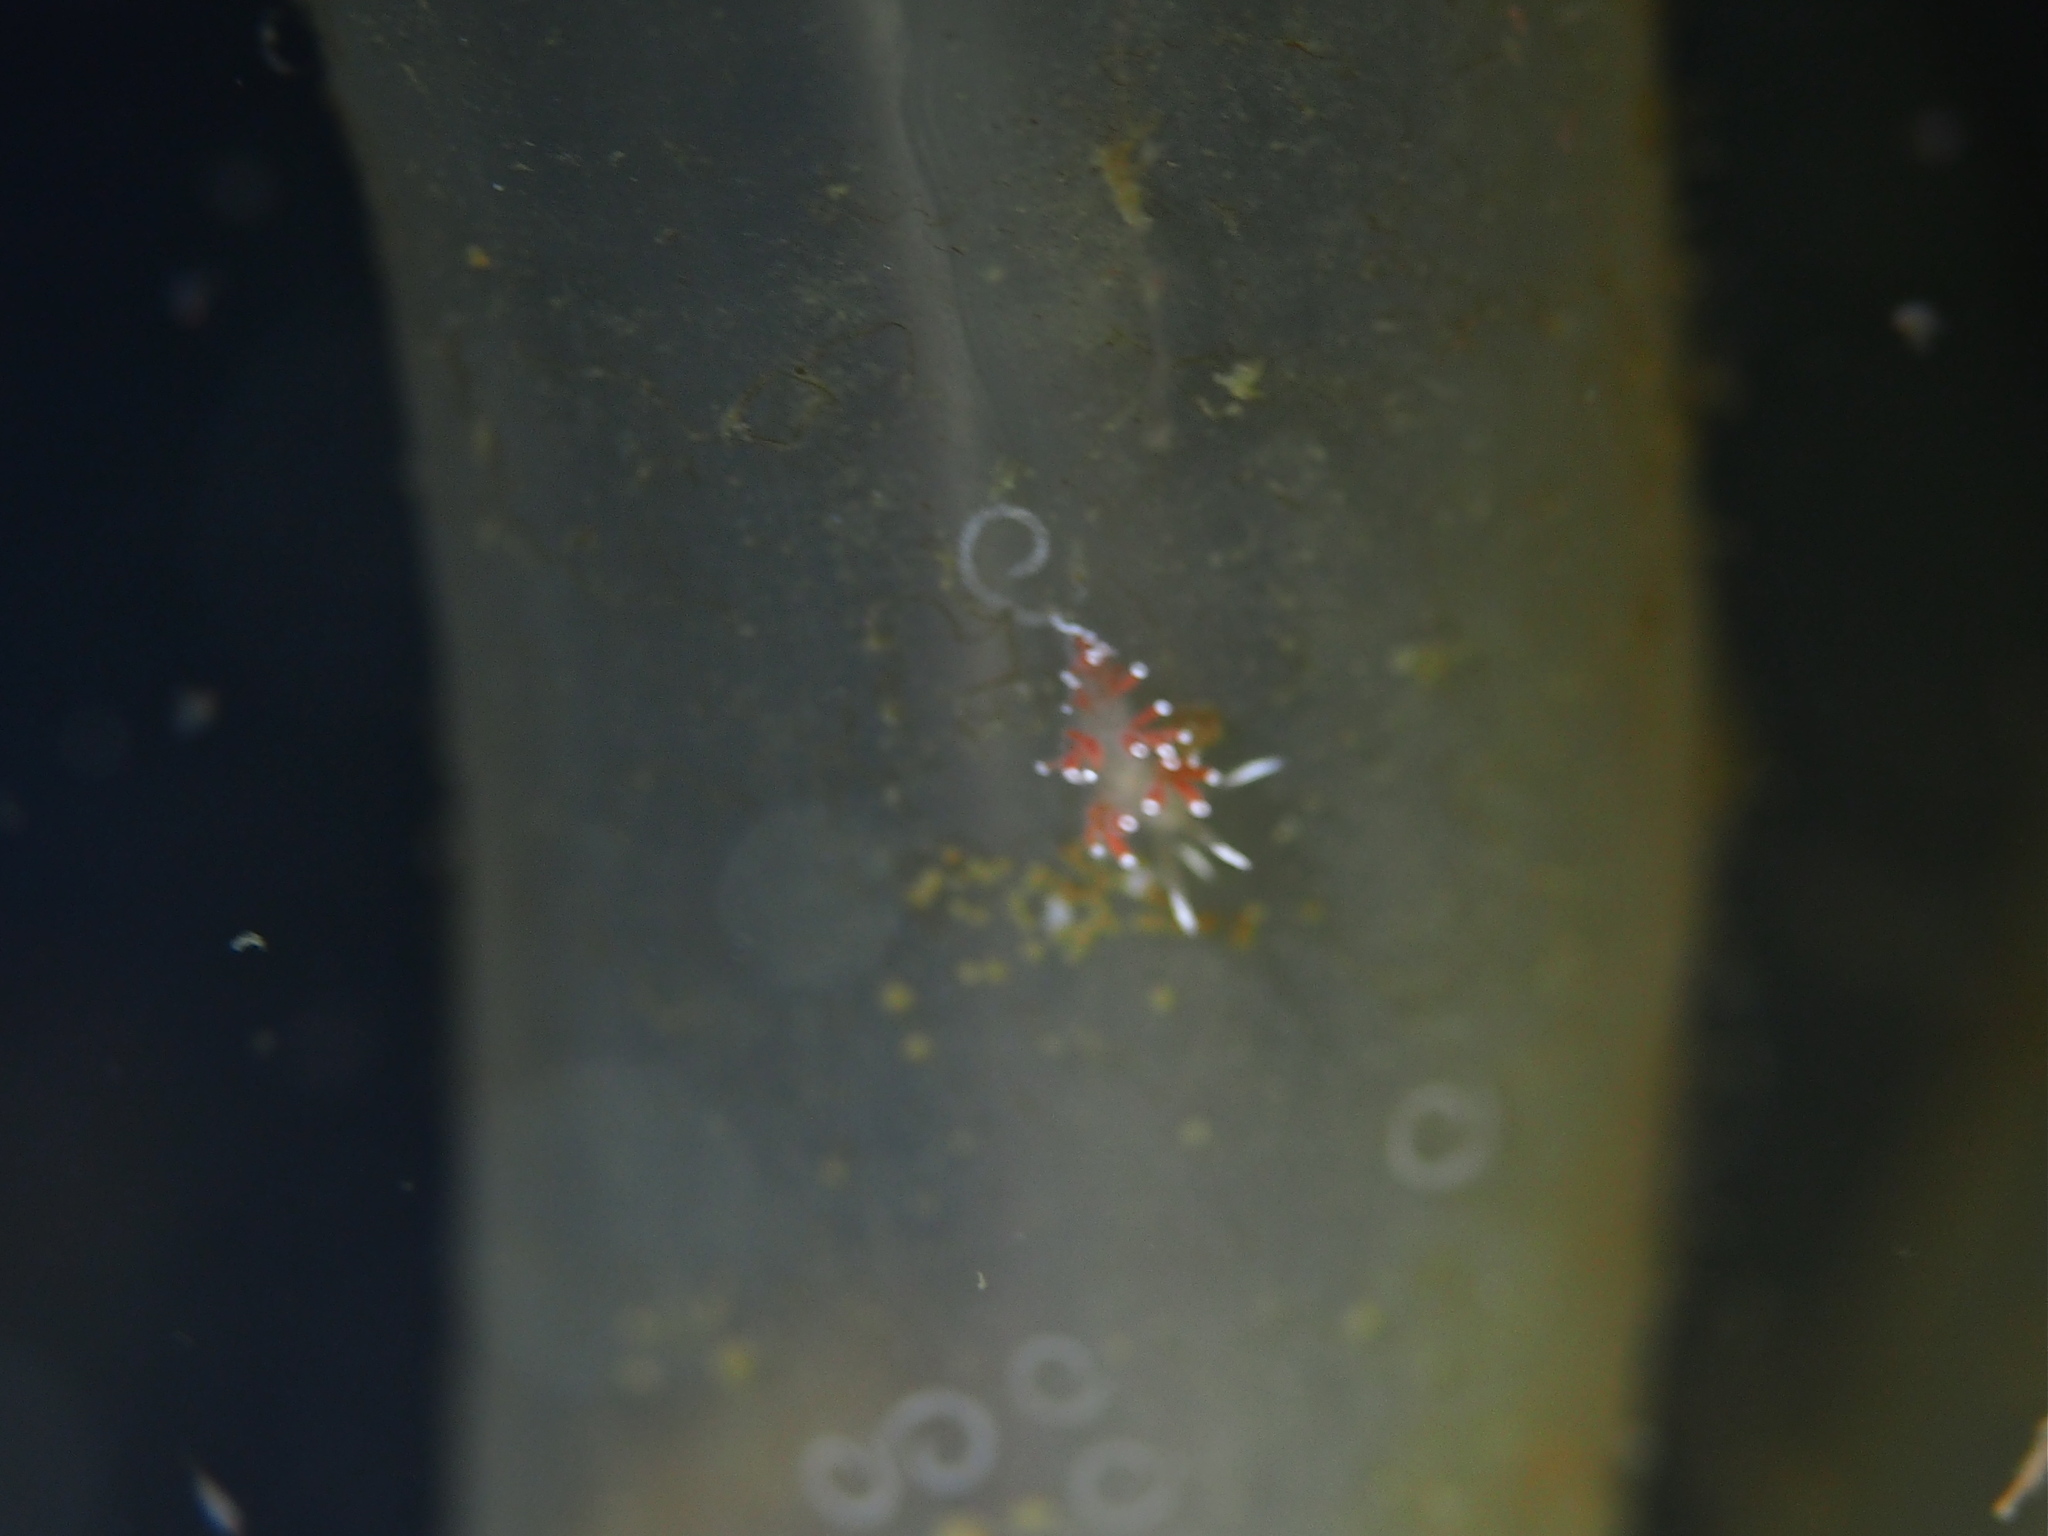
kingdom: Animalia
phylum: Mollusca
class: Gastropoda
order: Nudibranchia
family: Coryphellidae
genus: Coryphella
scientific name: Coryphella gracilis
